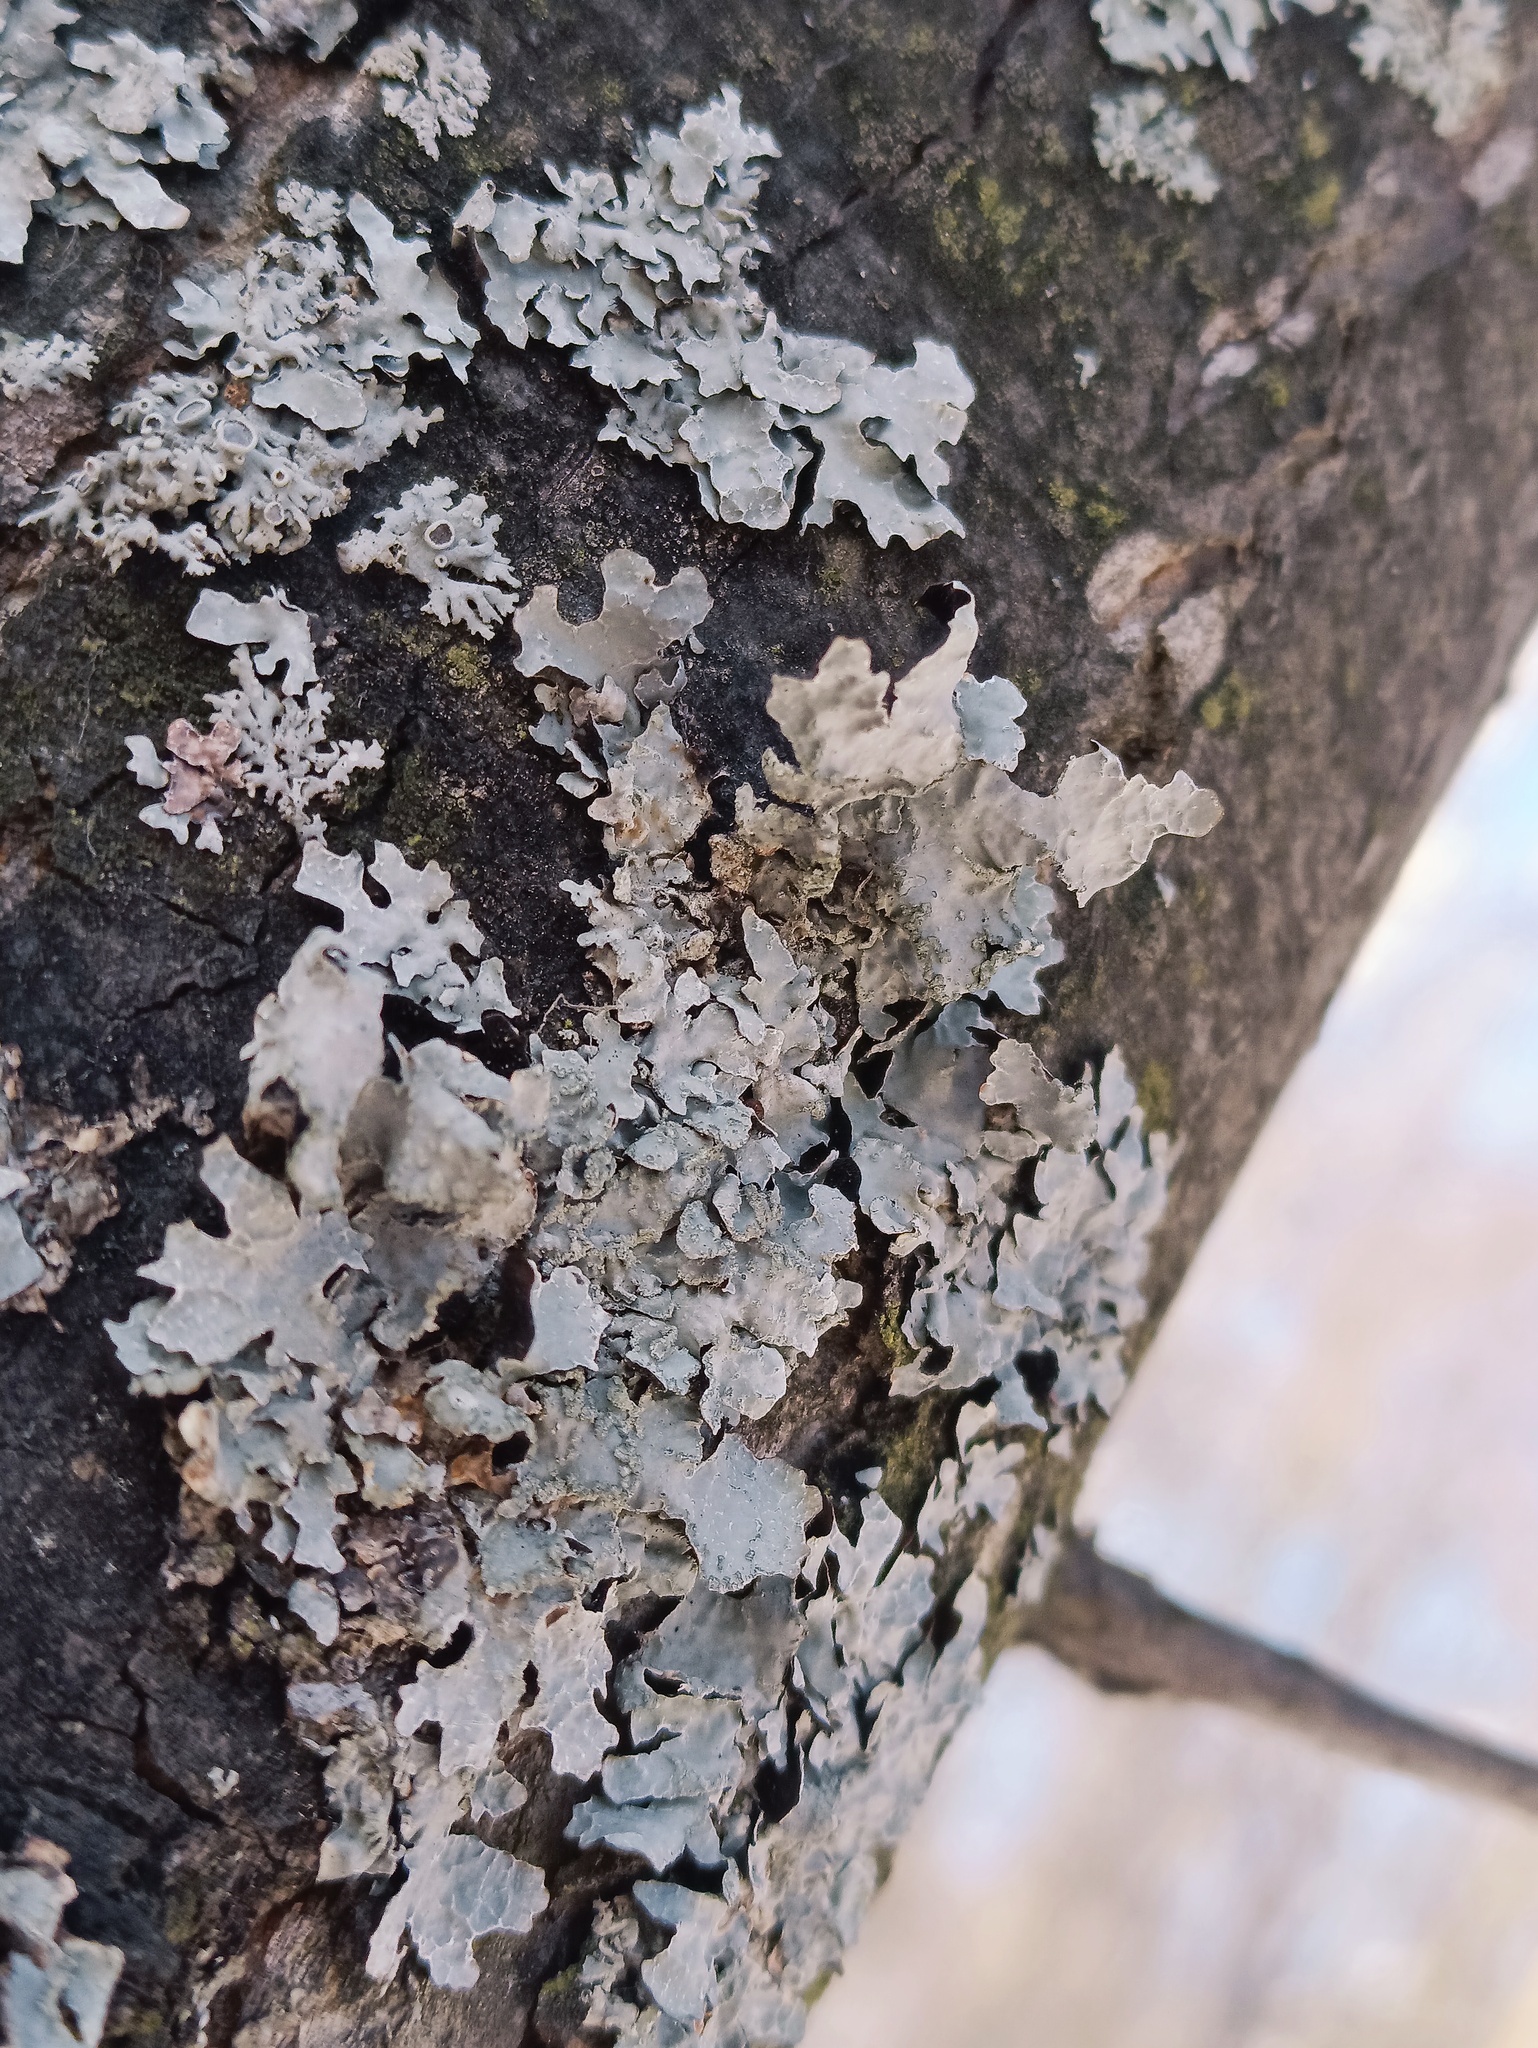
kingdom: Fungi
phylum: Ascomycota
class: Lecanoromycetes
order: Lecanorales
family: Parmeliaceae
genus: Parmelia
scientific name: Parmelia sulcata
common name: Netted shield lichen
